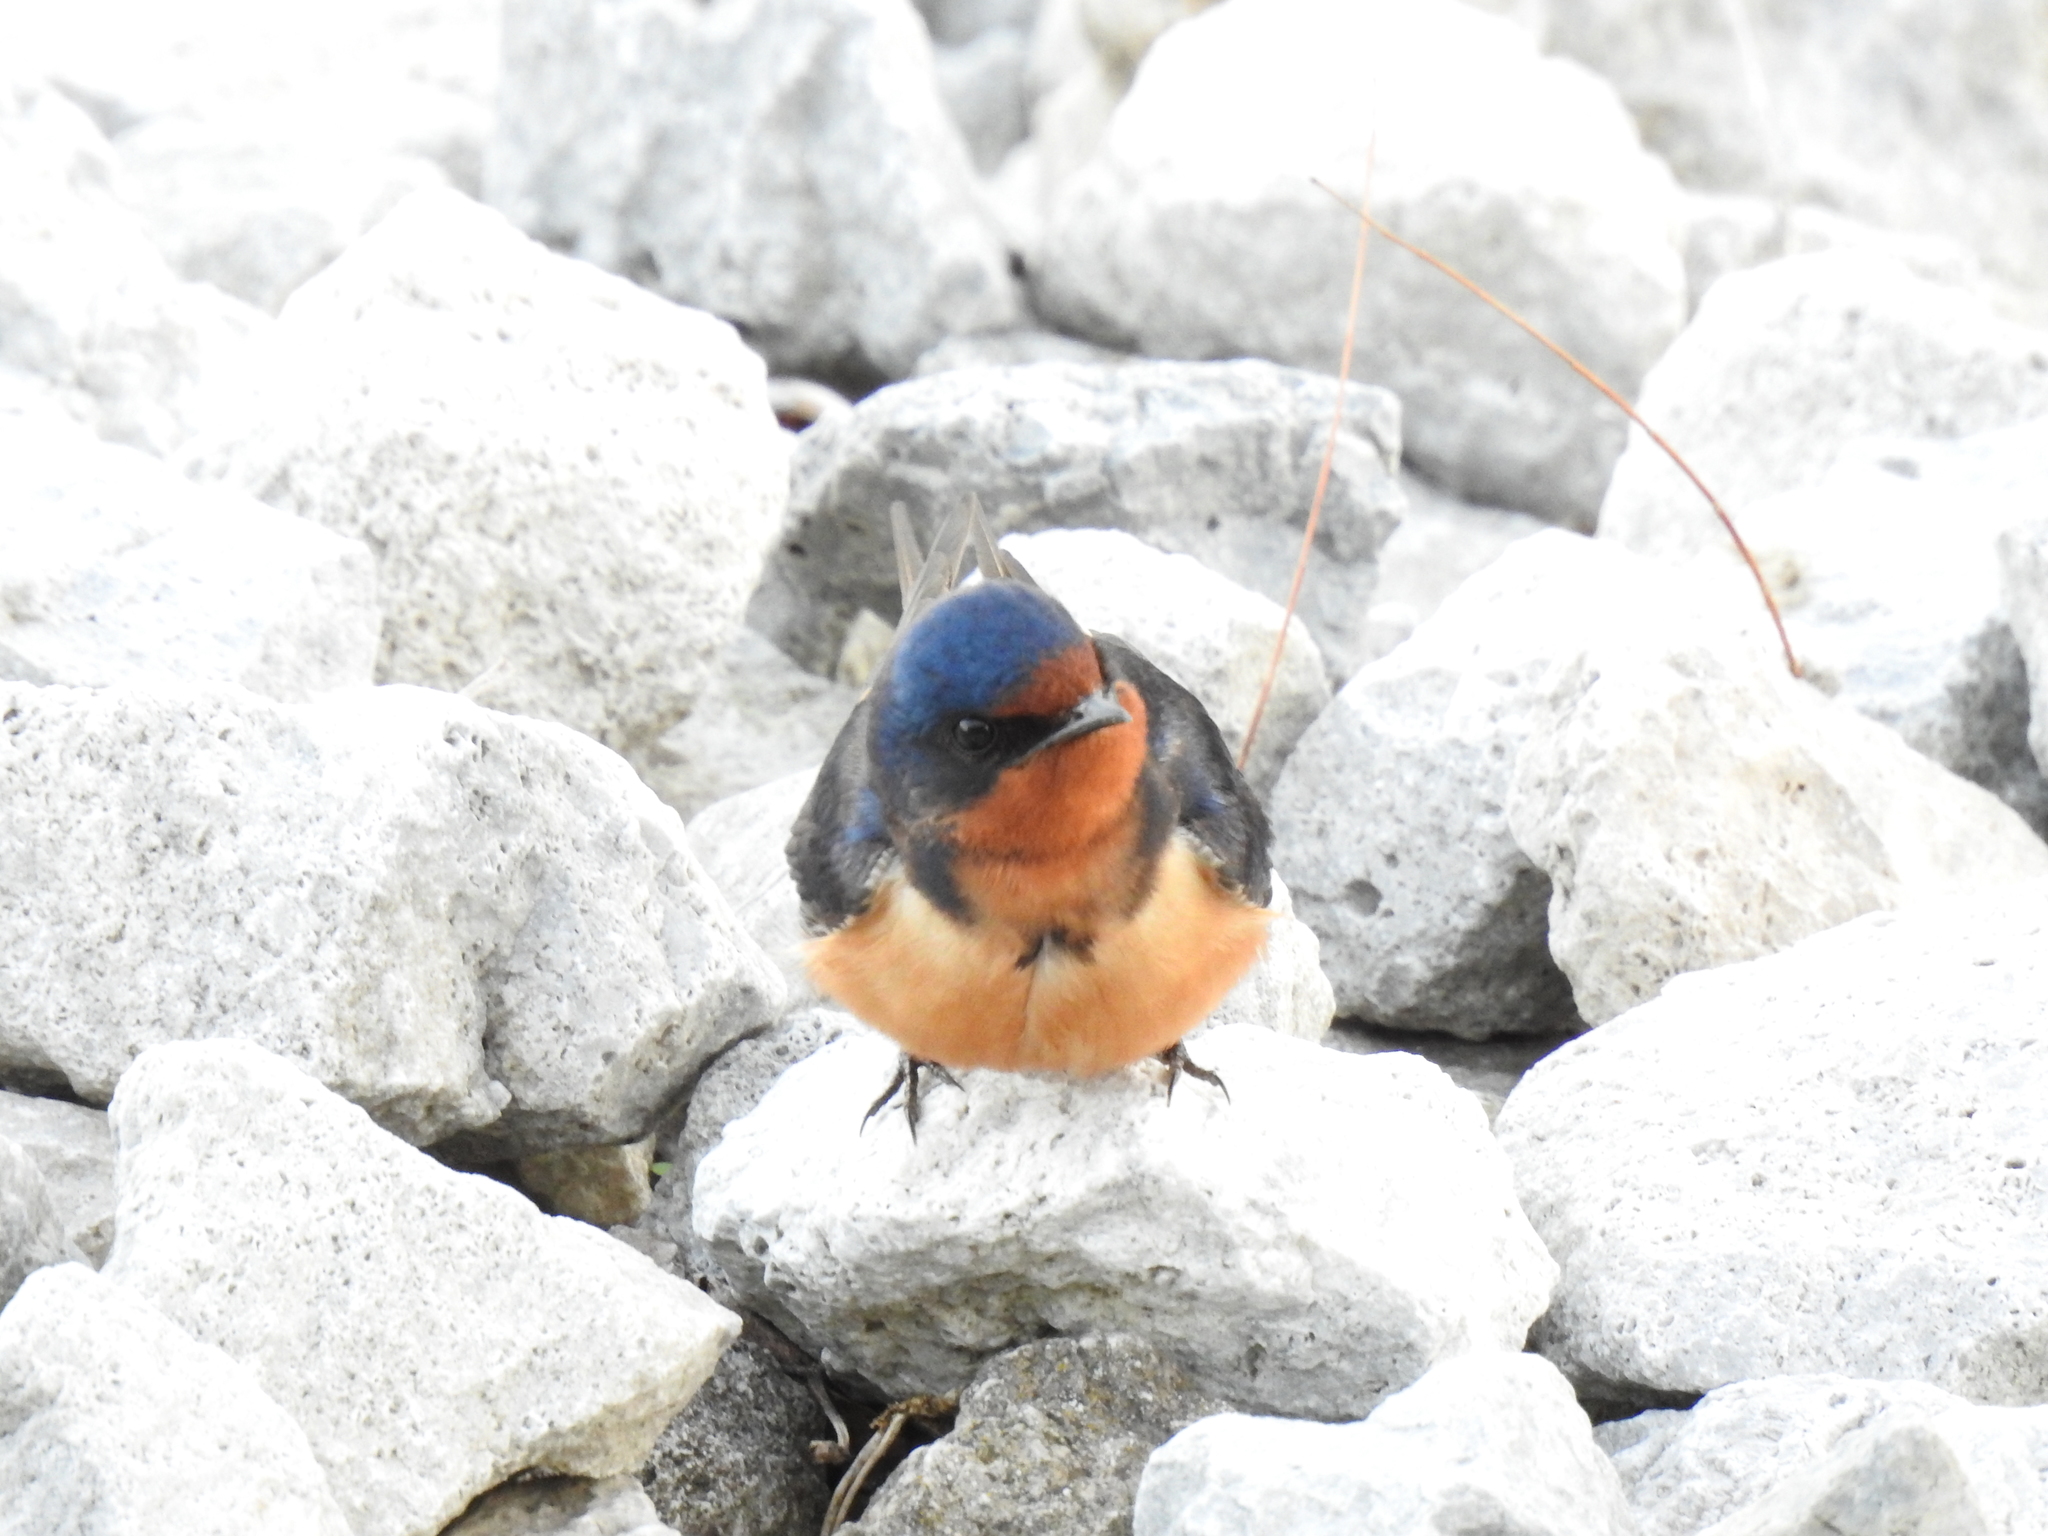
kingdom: Animalia
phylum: Chordata
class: Aves
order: Passeriformes
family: Hirundinidae
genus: Hirundo
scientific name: Hirundo rustica
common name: Barn swallow
